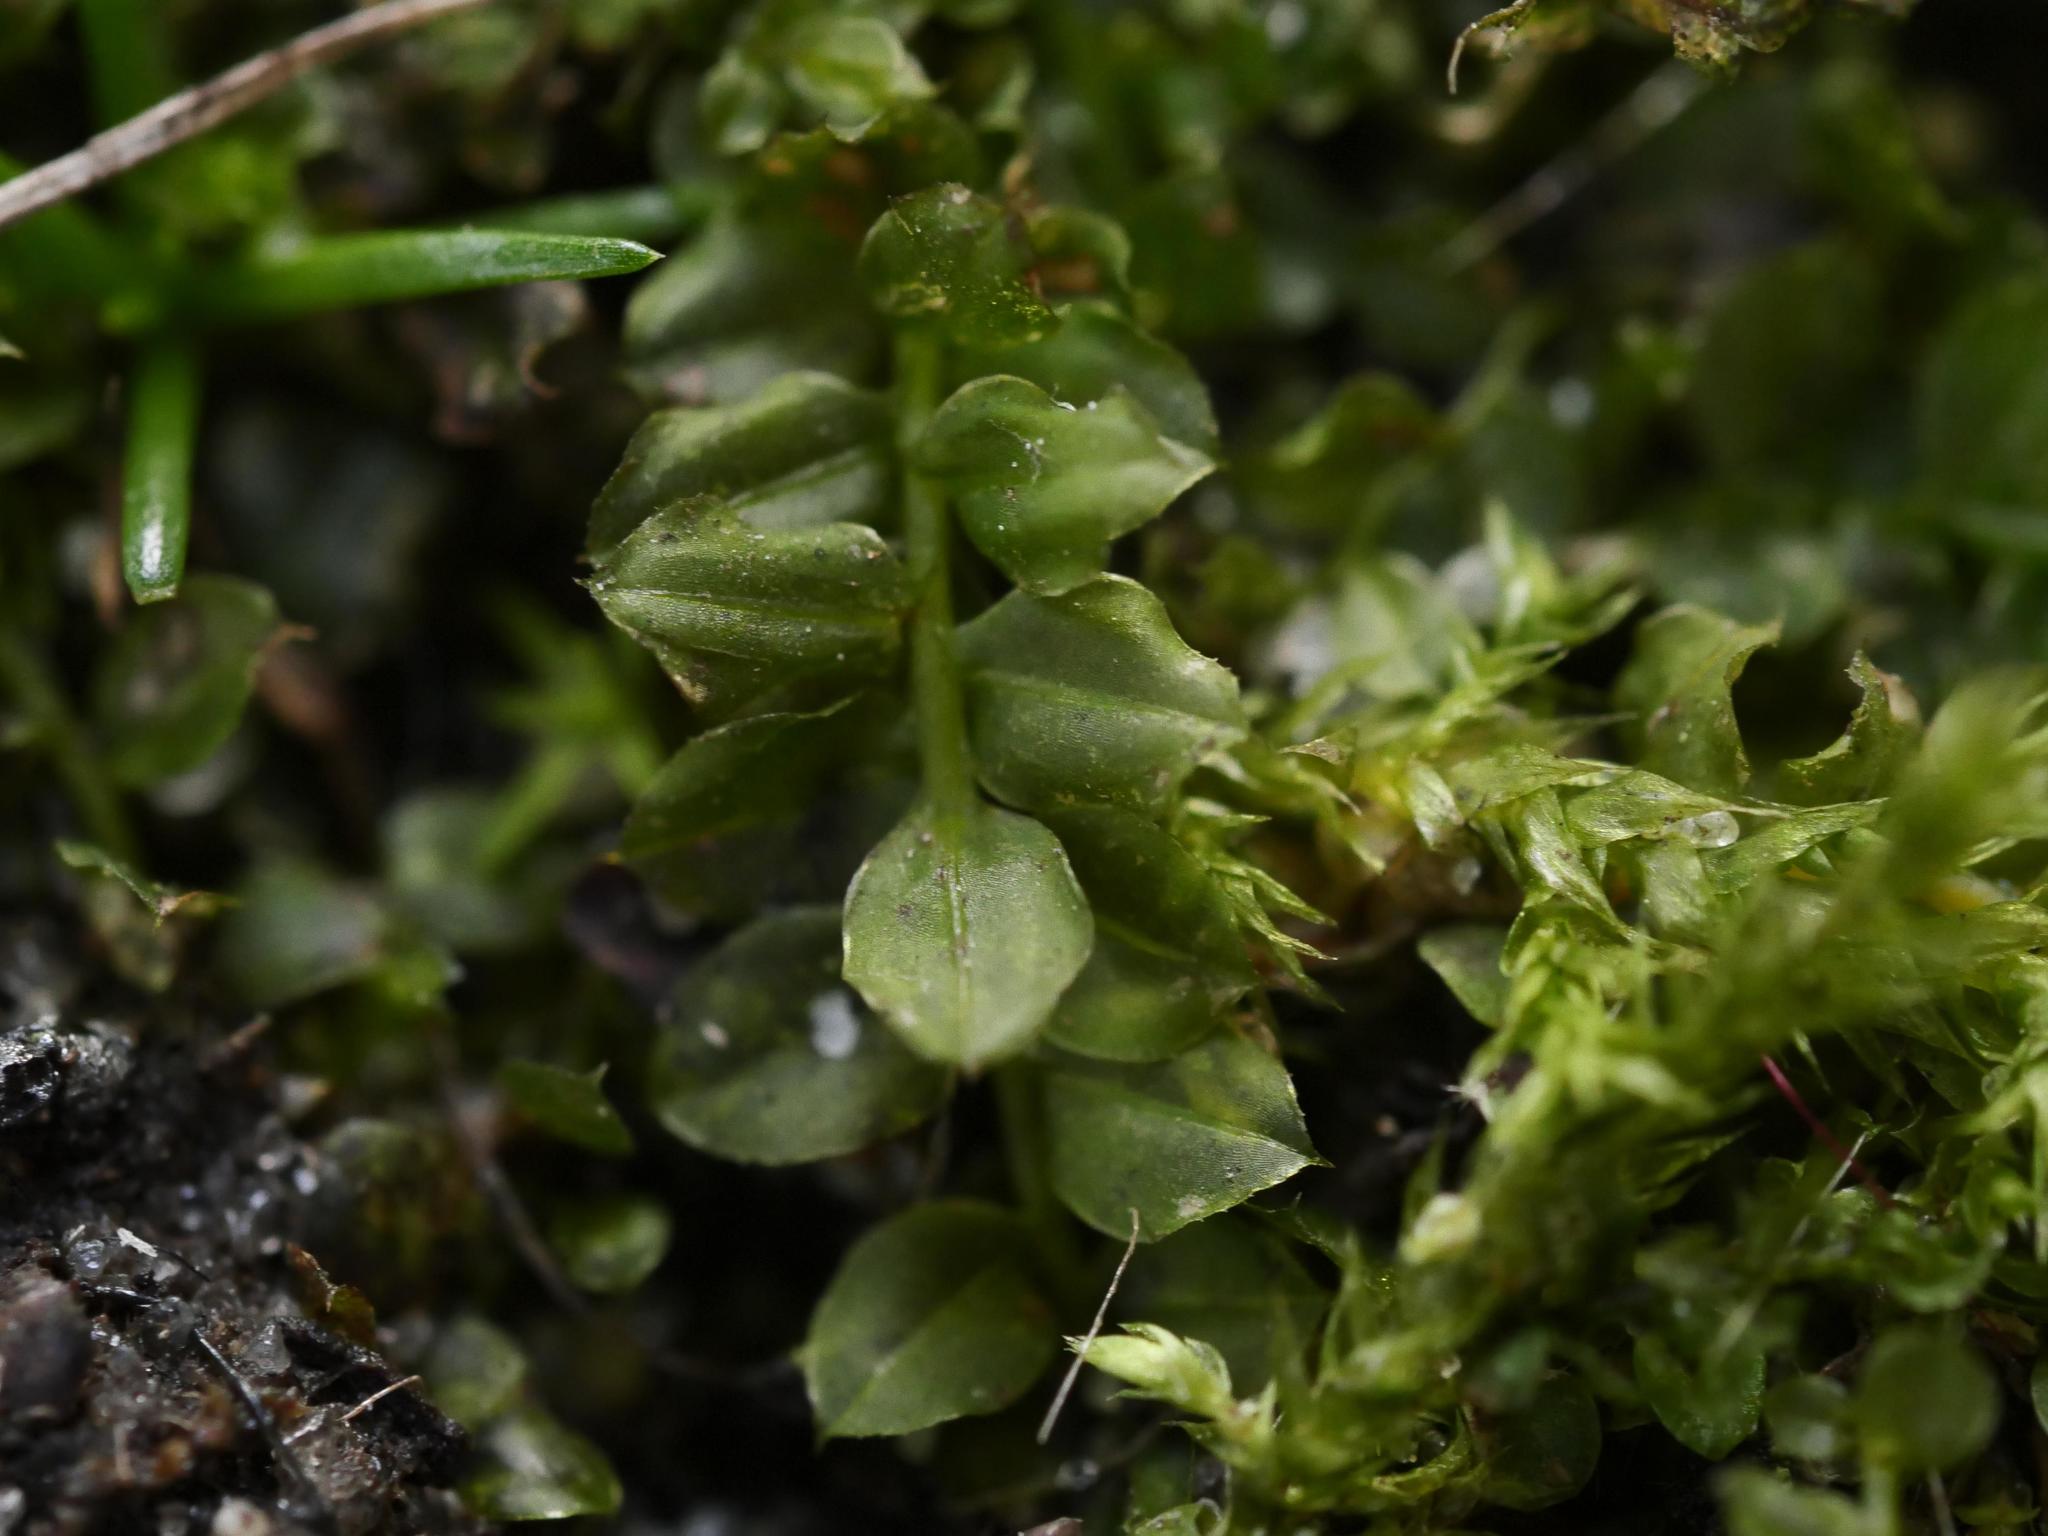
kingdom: Plantae
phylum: Bryophyta
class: Bryopsida
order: Bryales
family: Mniaceae
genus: Plagiomnium
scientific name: Plagiomnium cuspidatum
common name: Woodsy leafy moss
